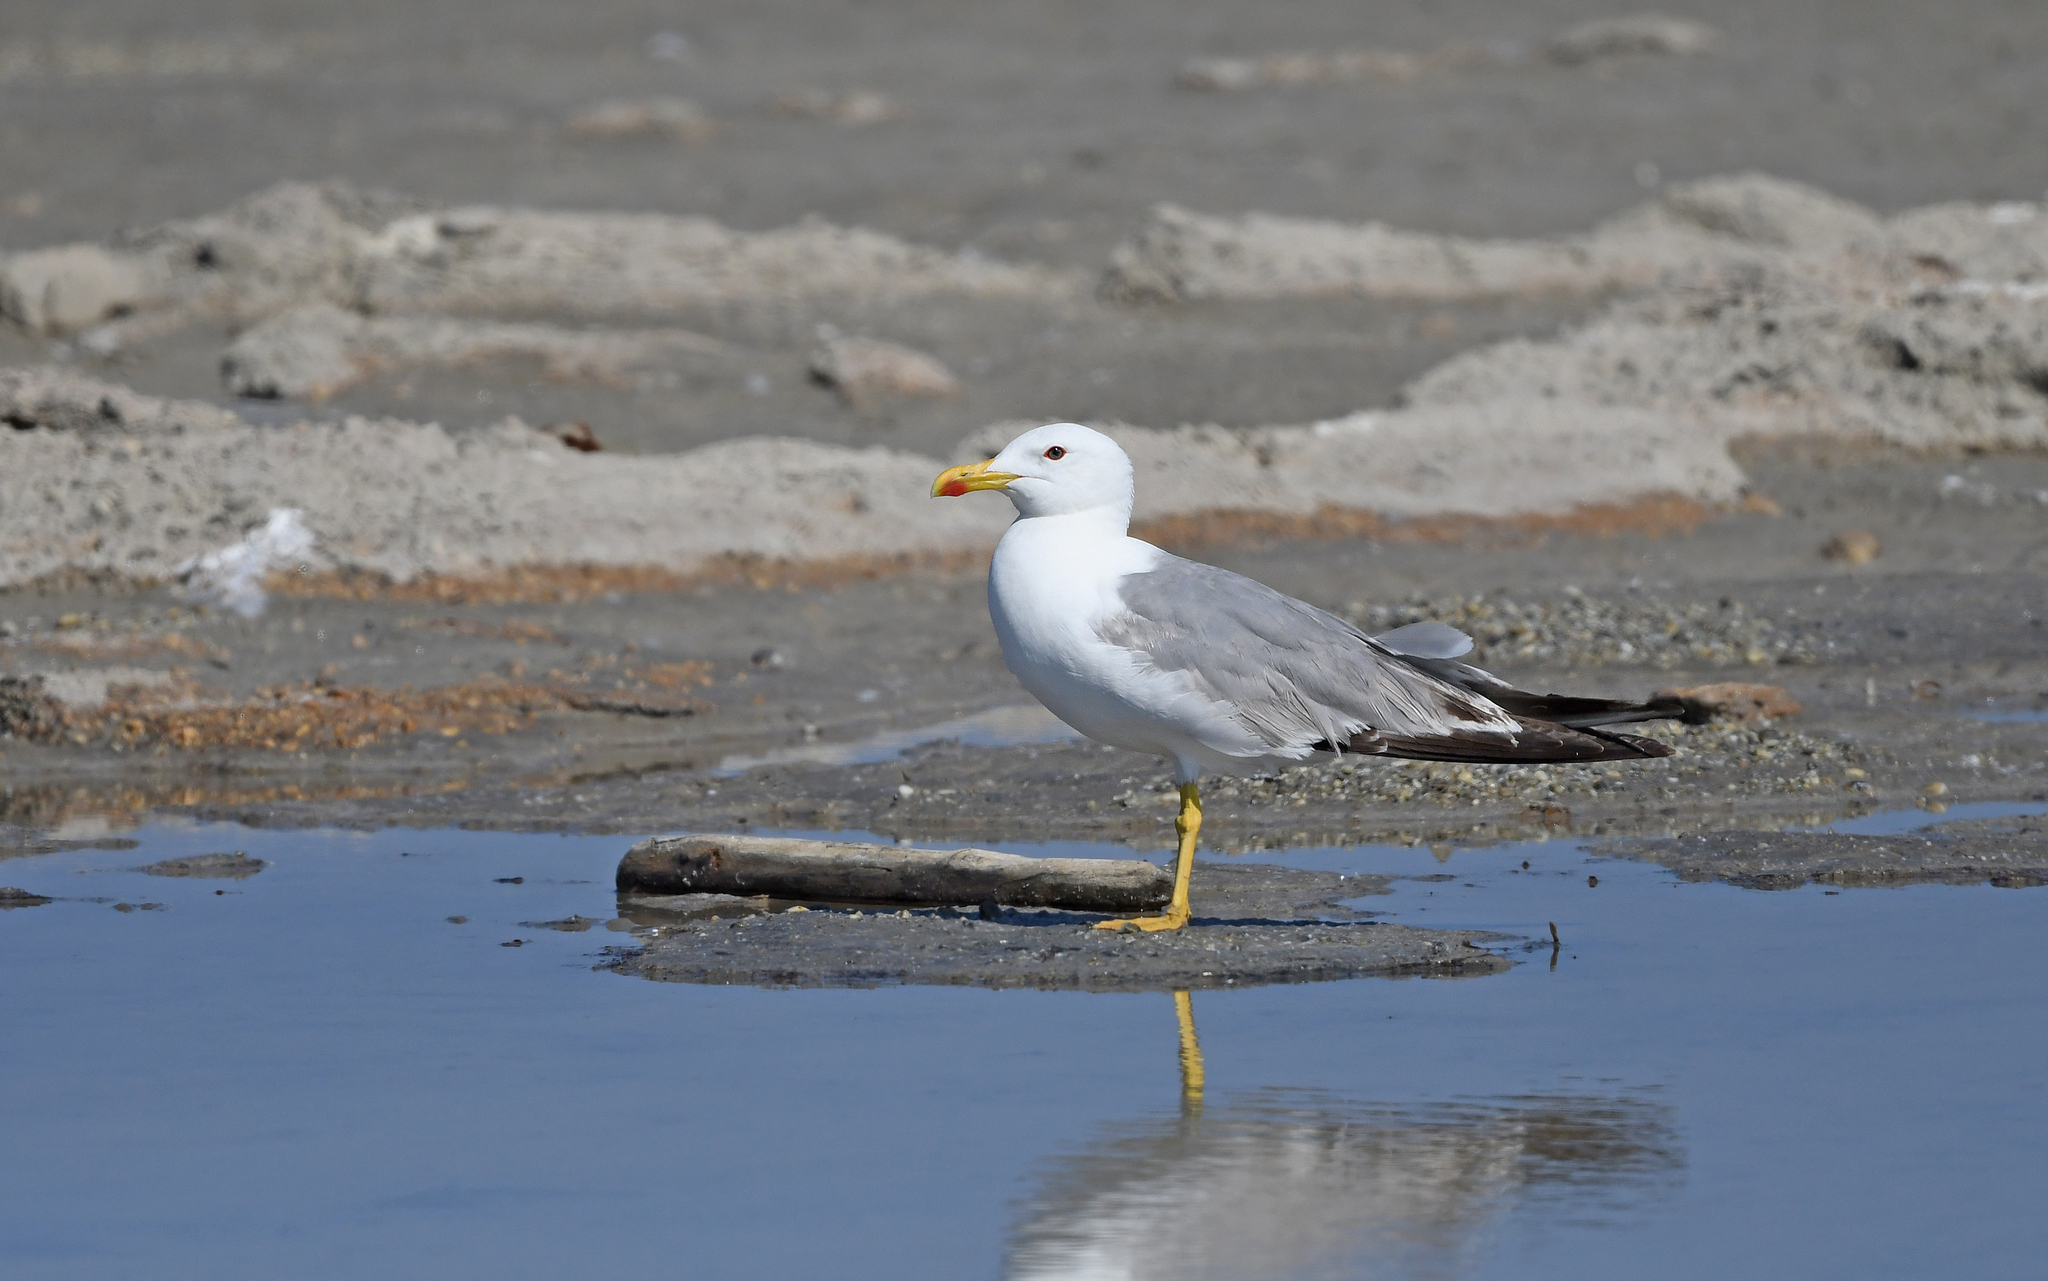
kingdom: Animalia
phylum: Chordata
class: Aves
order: Charadriiformes
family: Laridae
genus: Larus
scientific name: Larus michahellis
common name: Yellow-legged gull
